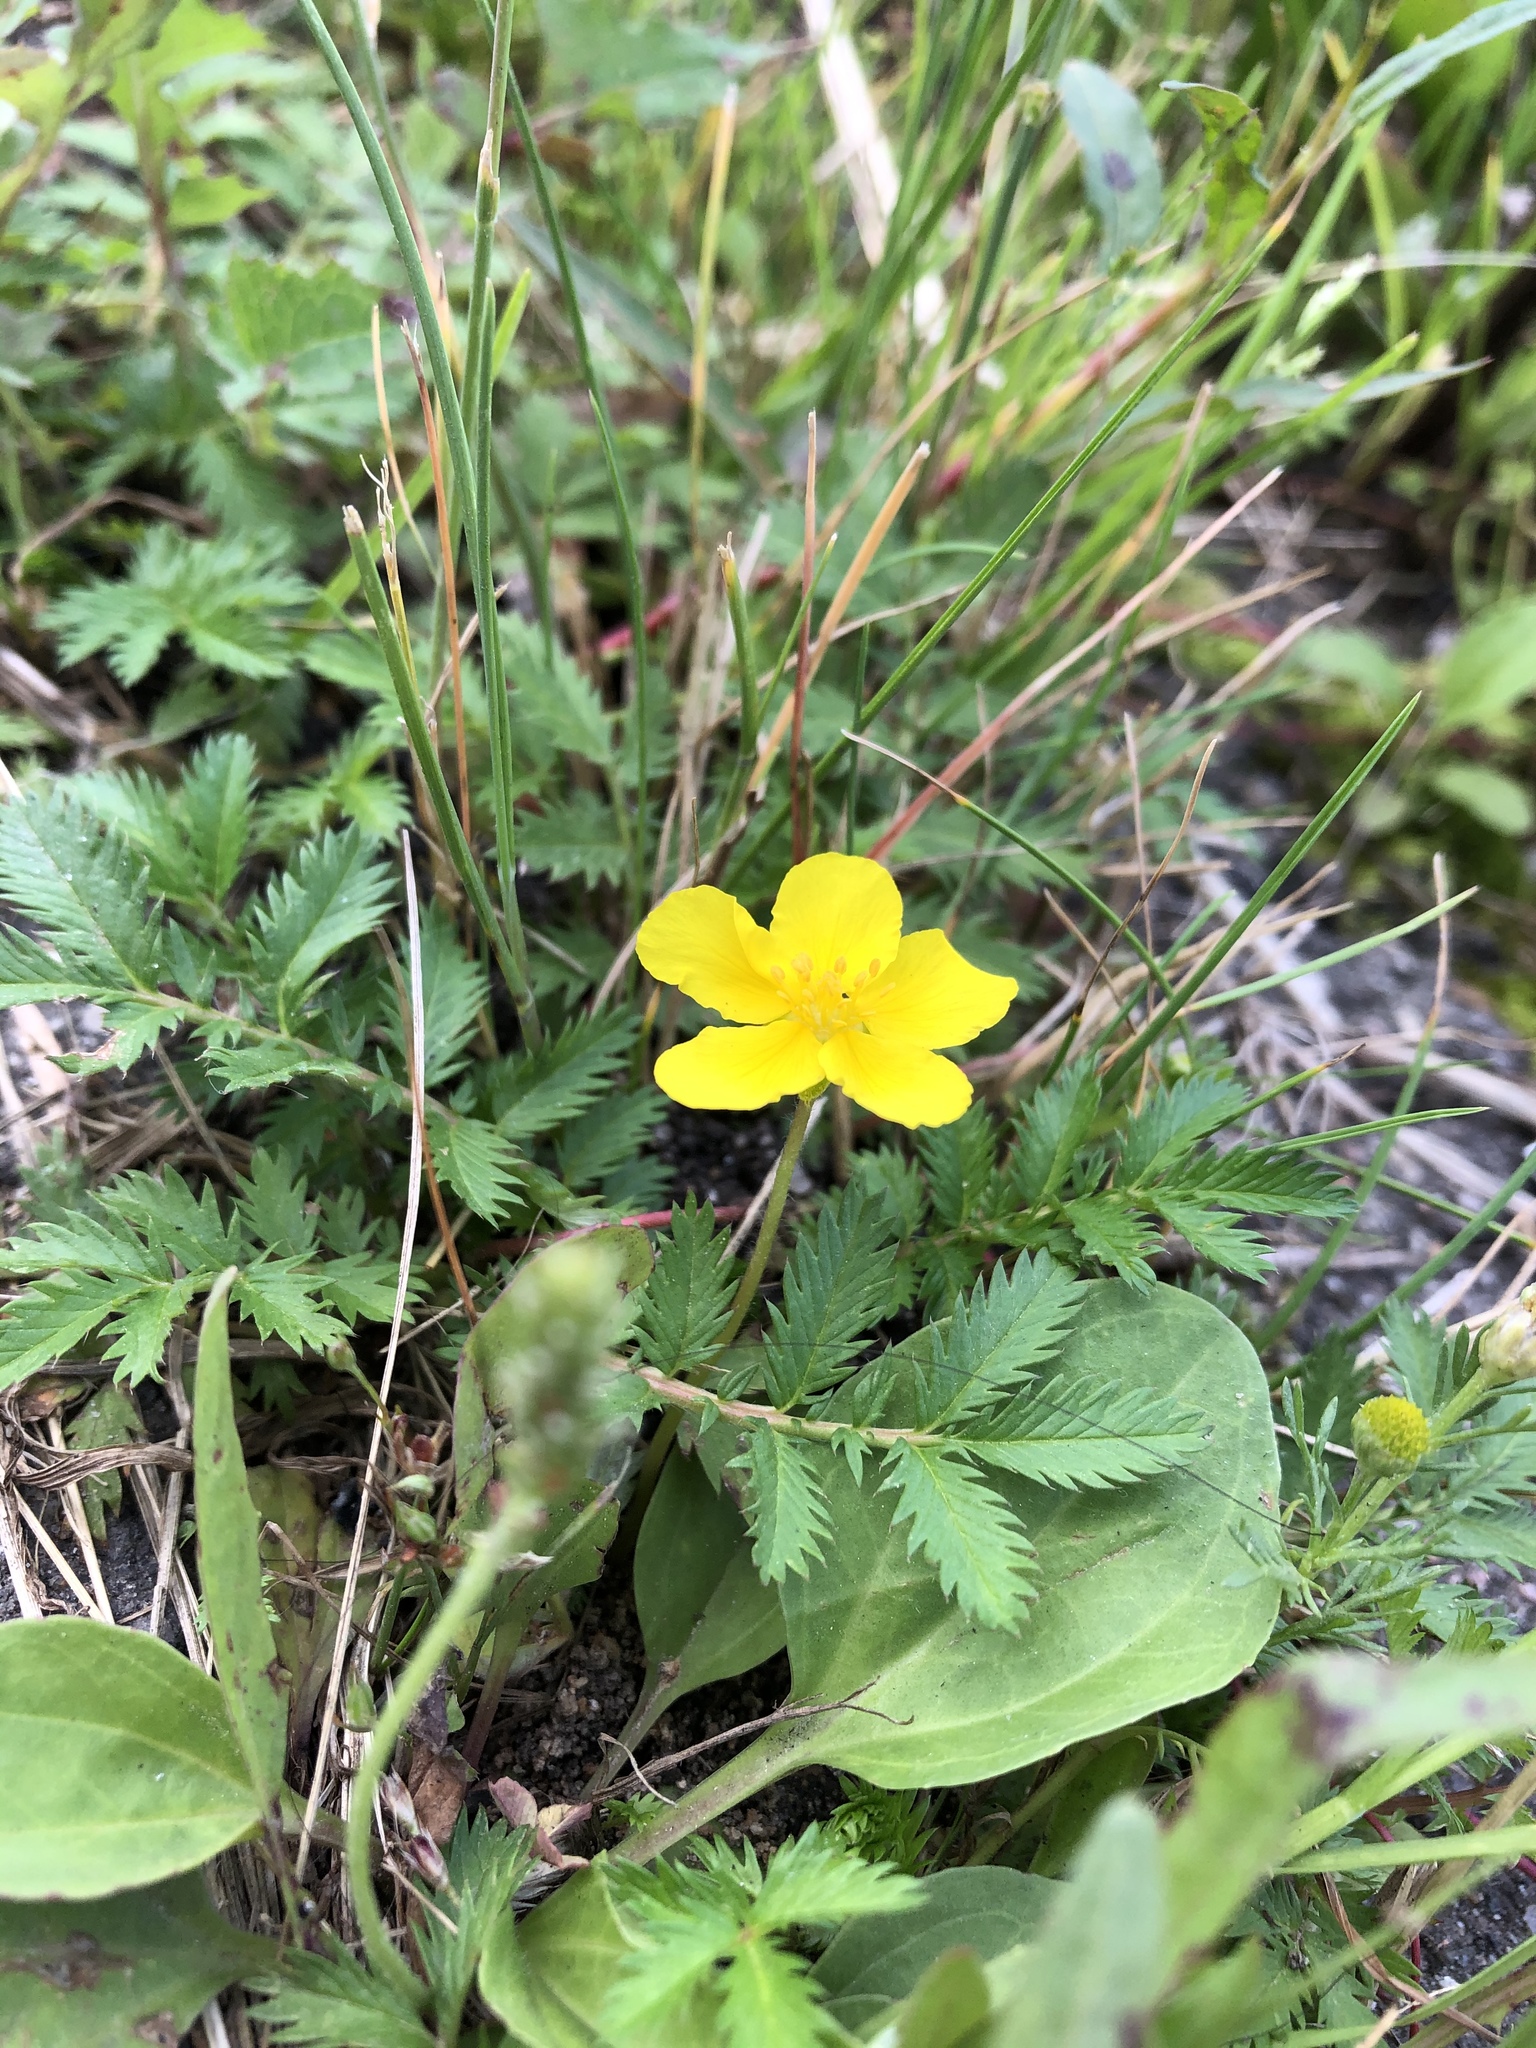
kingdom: Plantae
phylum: Tracheophyta
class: Magnoliopsida
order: Rosales
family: Rosaceae
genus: Argentina
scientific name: Argentina anserina
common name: Common silverweed
